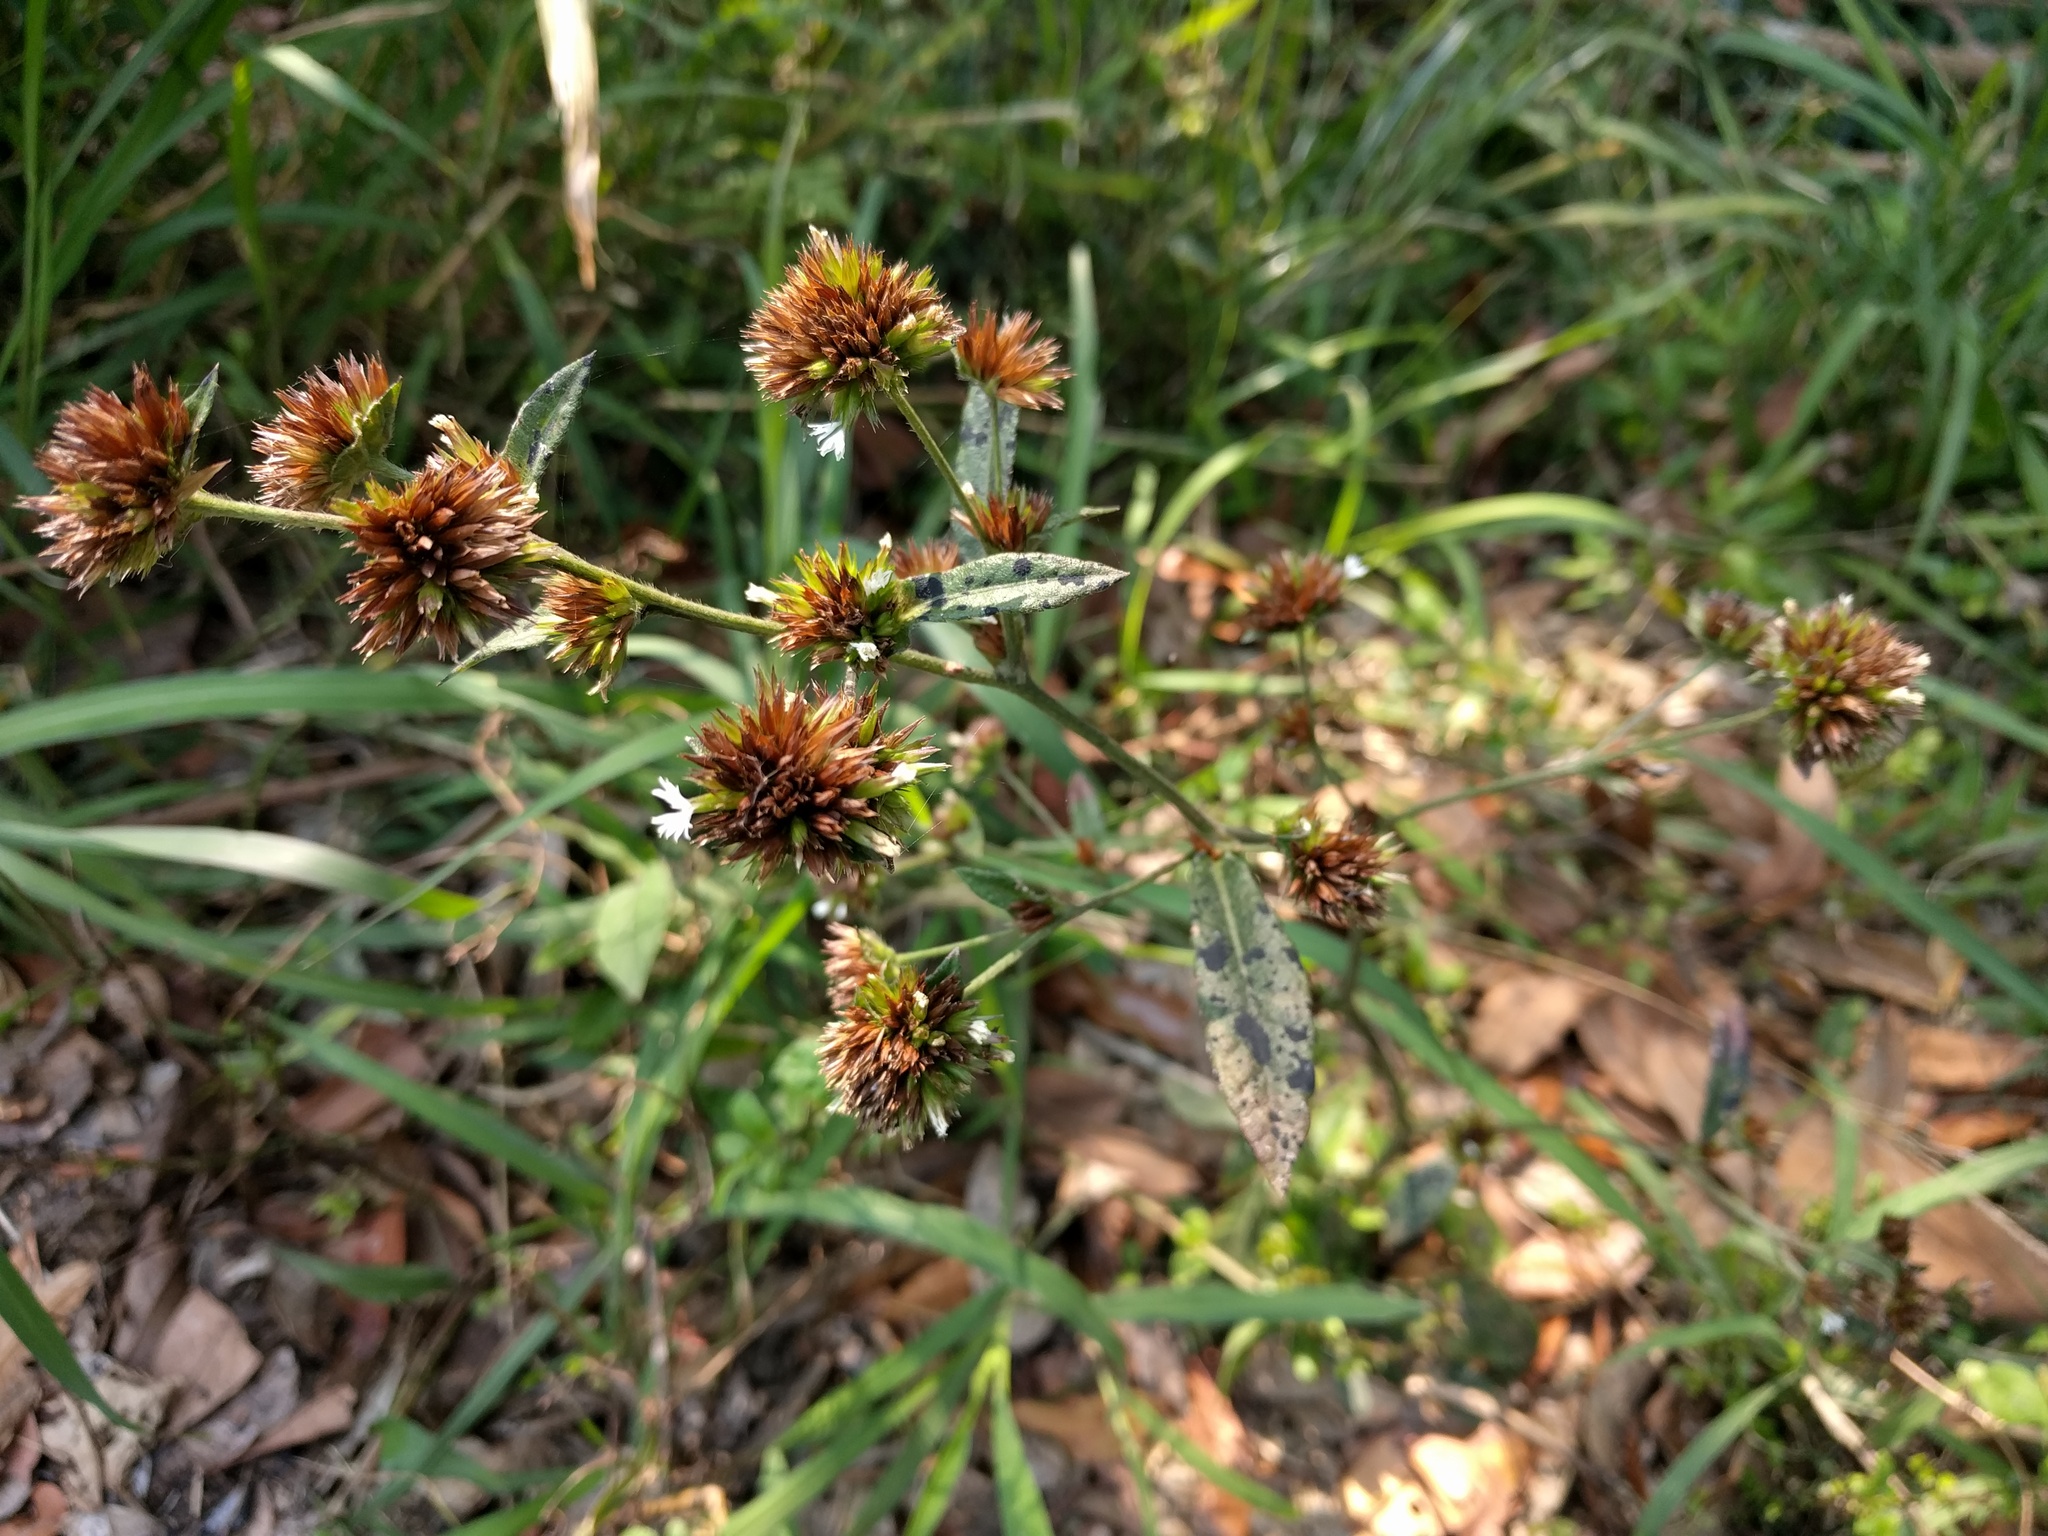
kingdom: Plantae
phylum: Tracheophyta
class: Magnoliopsida
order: Asterales
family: Asteraceae
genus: Elephantopus
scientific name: Elephantopus mollis
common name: Soft elephantsfoot
